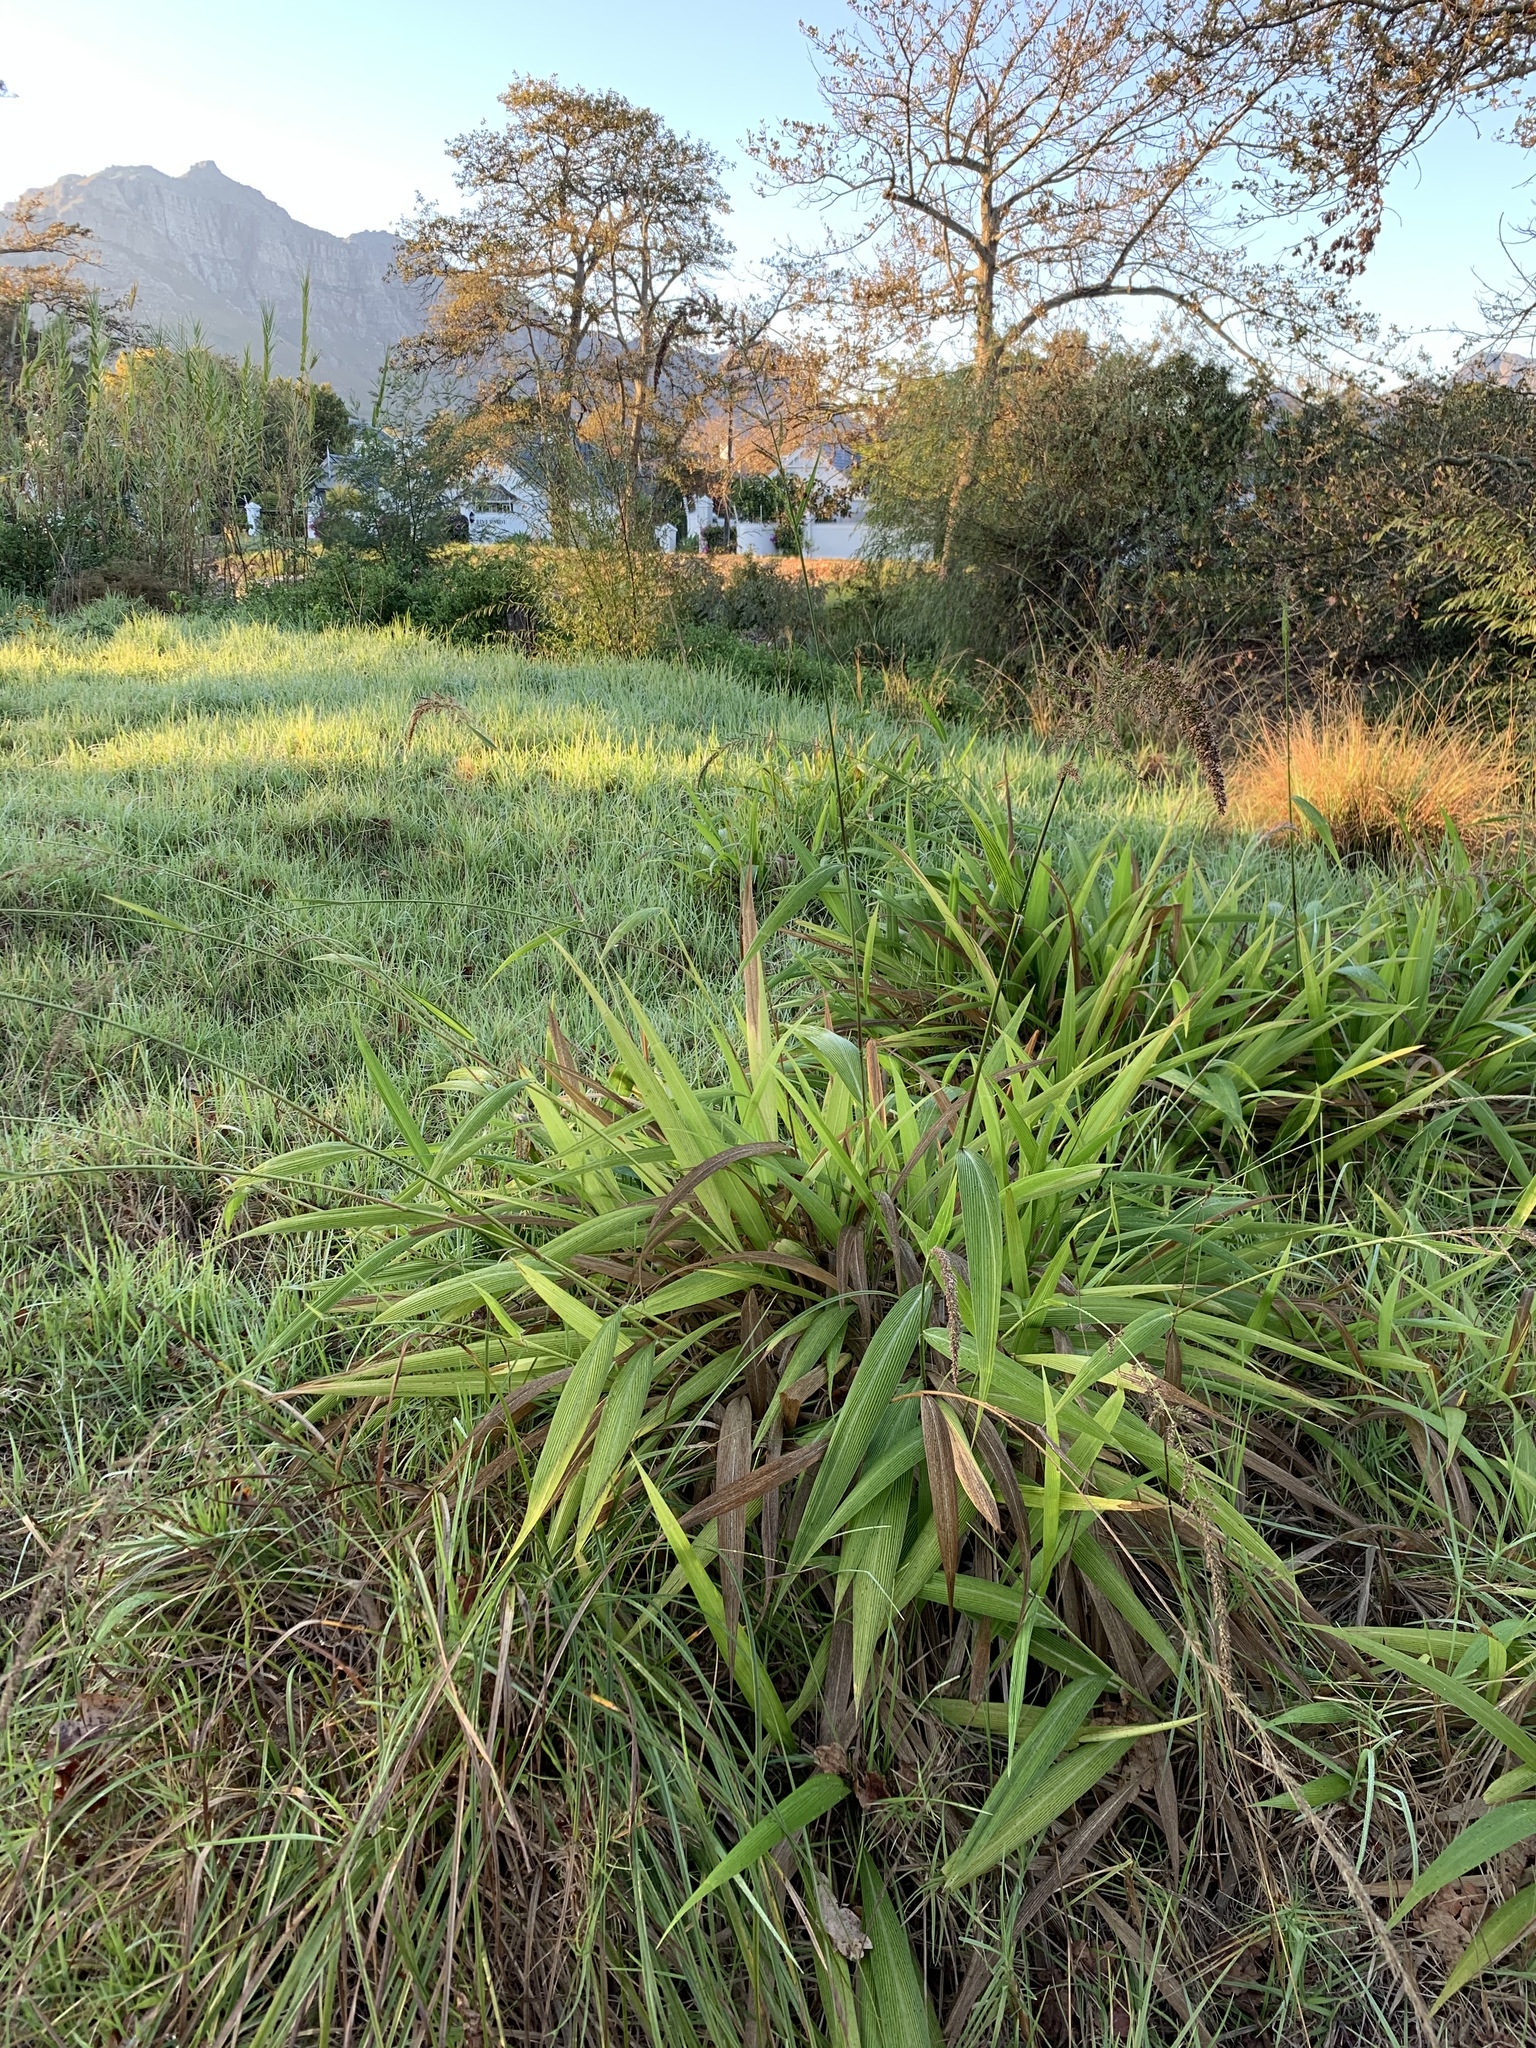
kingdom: Plantae
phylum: Tracheophyta
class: Liliopsida
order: Poales
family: Poaceae
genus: Setaria
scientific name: Setaria megaphylla
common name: Bigleaf bristlegrass
